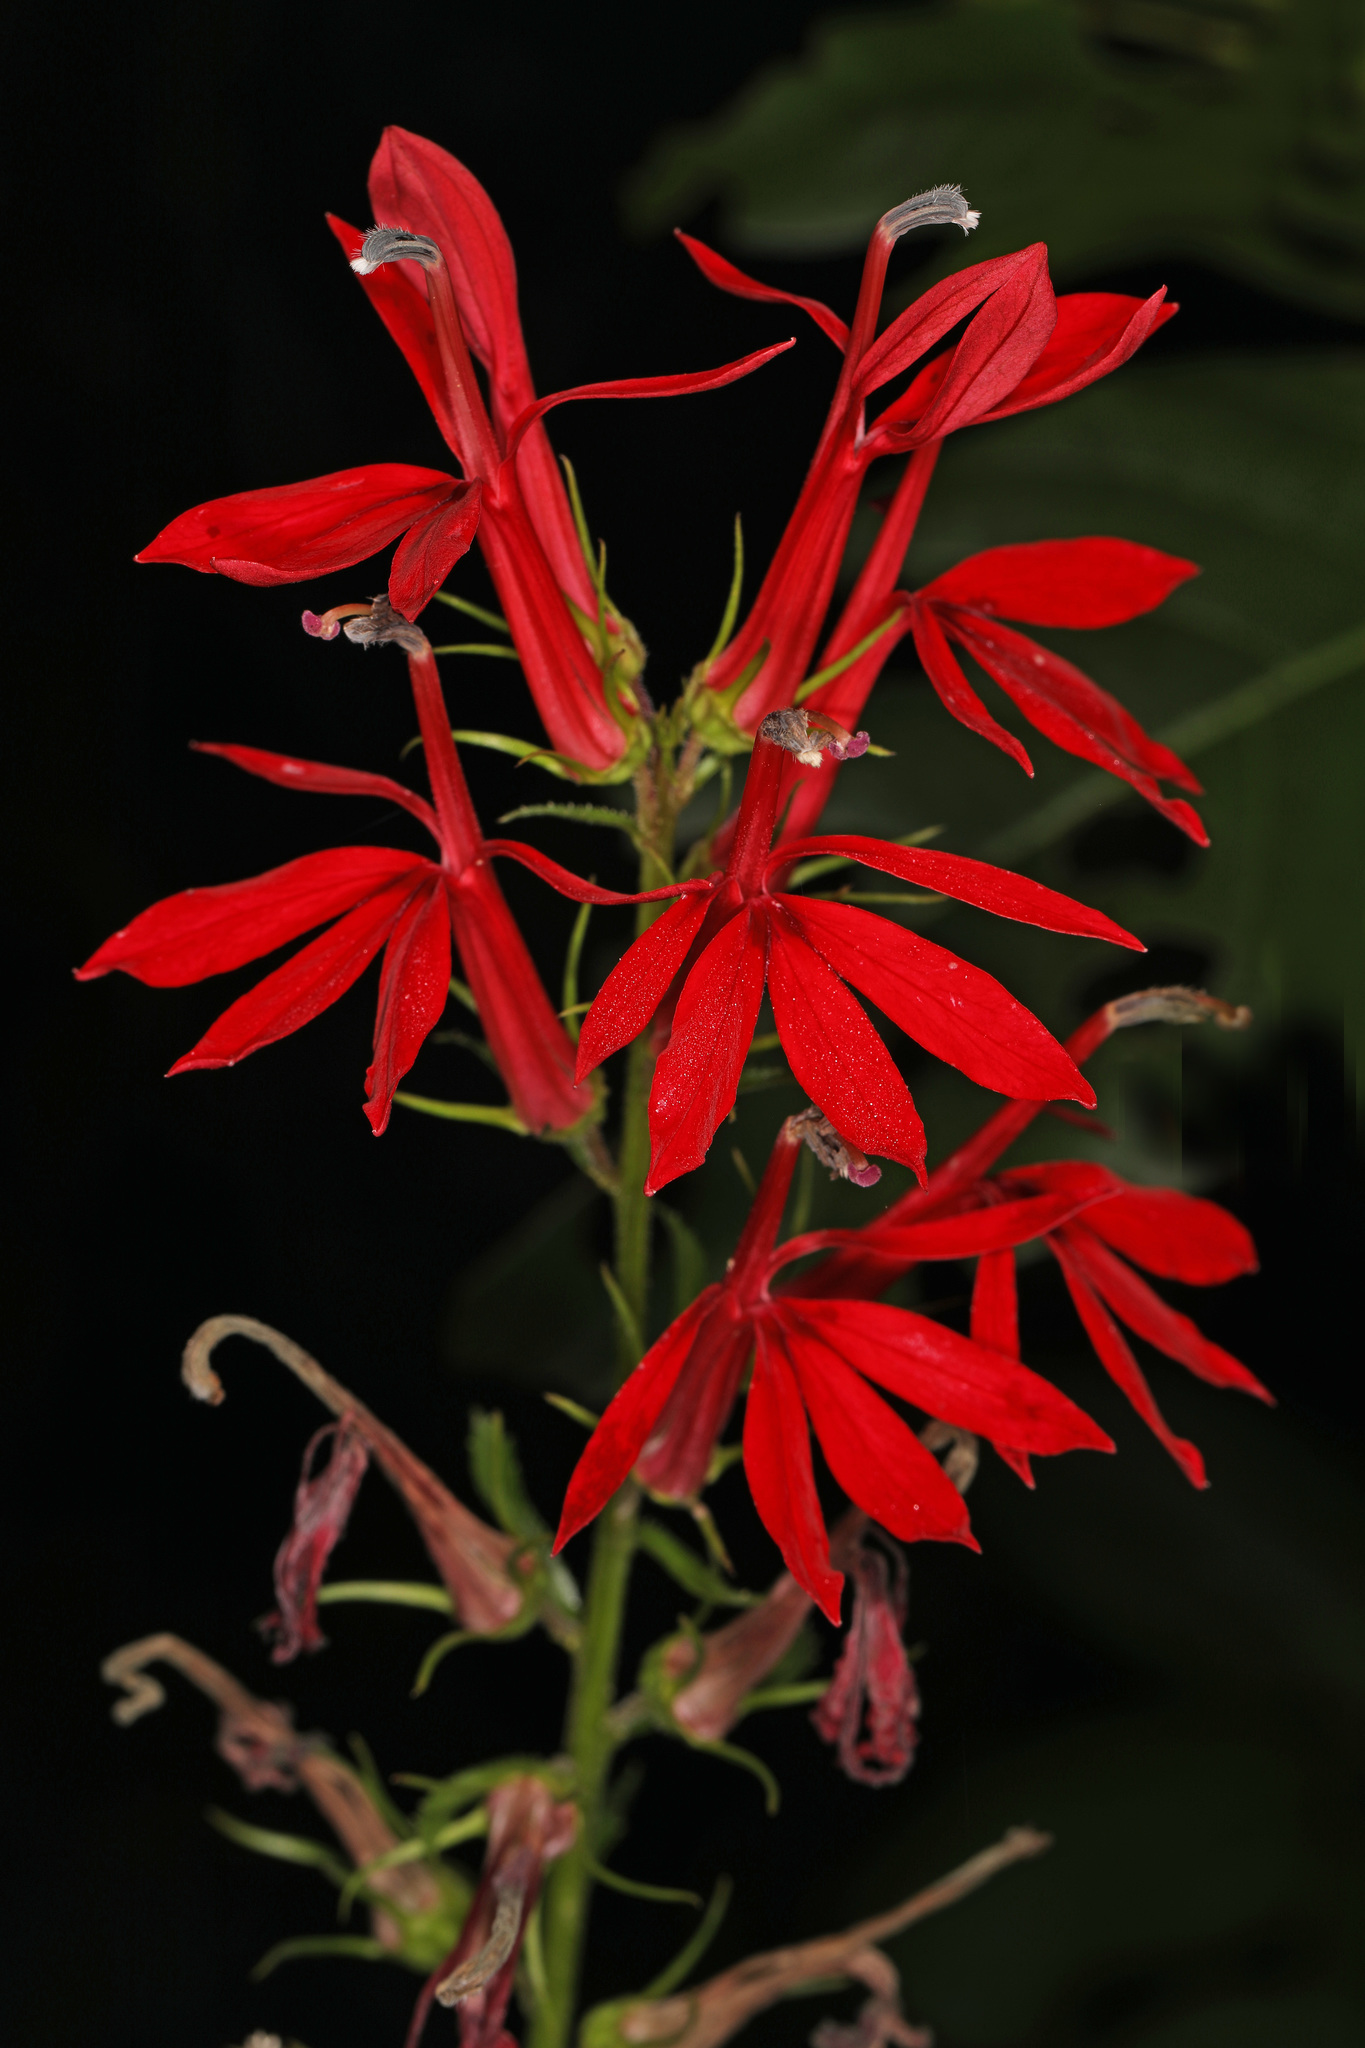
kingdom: Plantae
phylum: Tracheophyta
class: Magnoliopsida
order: Asterales
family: Campanulaceae
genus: Lobelia
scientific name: Lobelia cardinalis
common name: Cardinal flower
